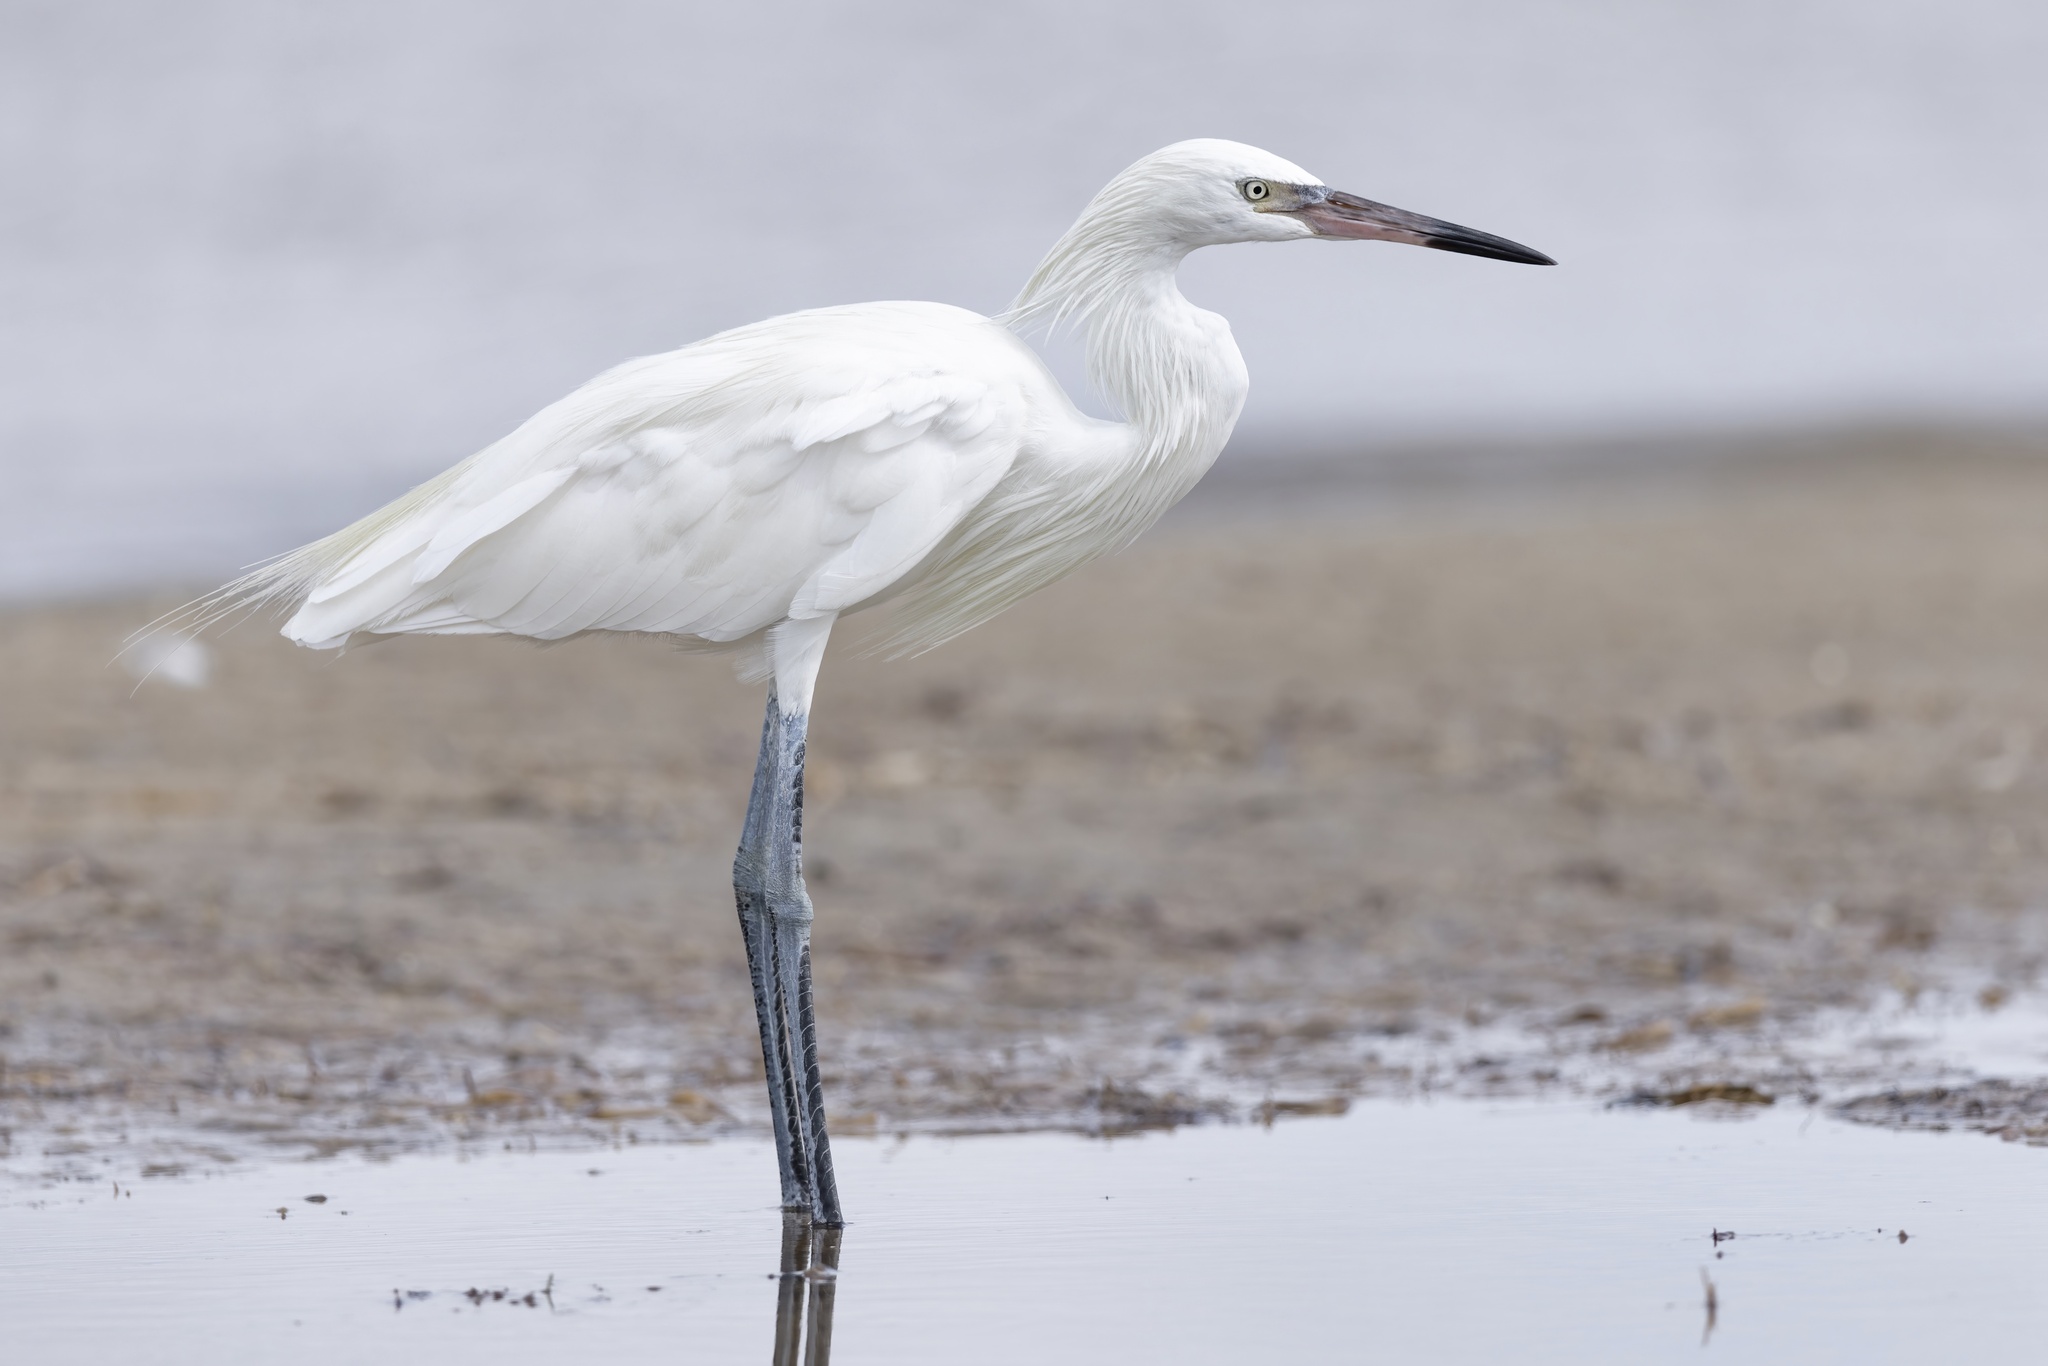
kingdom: Animalia
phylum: Chordata
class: Aves
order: Pelecaniformes
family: Ardeidae
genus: Egretta
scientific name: Egretta rufescens
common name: Reddish egret
